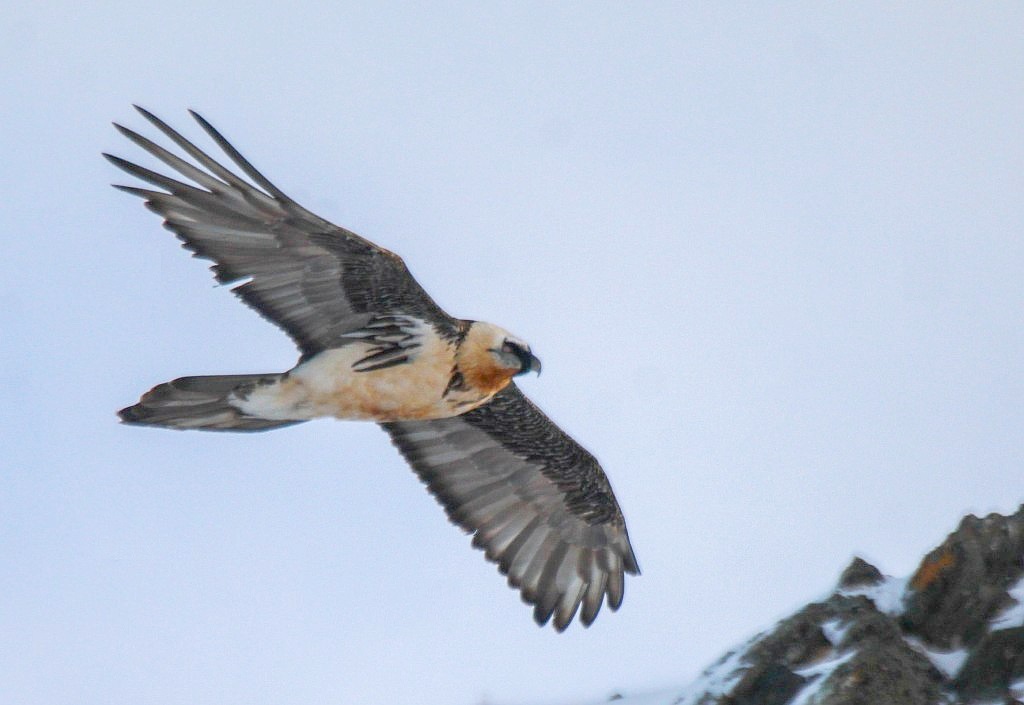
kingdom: Animalia
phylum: Chordata
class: Aves
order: Accipitriformes
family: Accipitridae
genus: Gypaetus
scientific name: Gypaetus barbatus
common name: Bearded vulture
